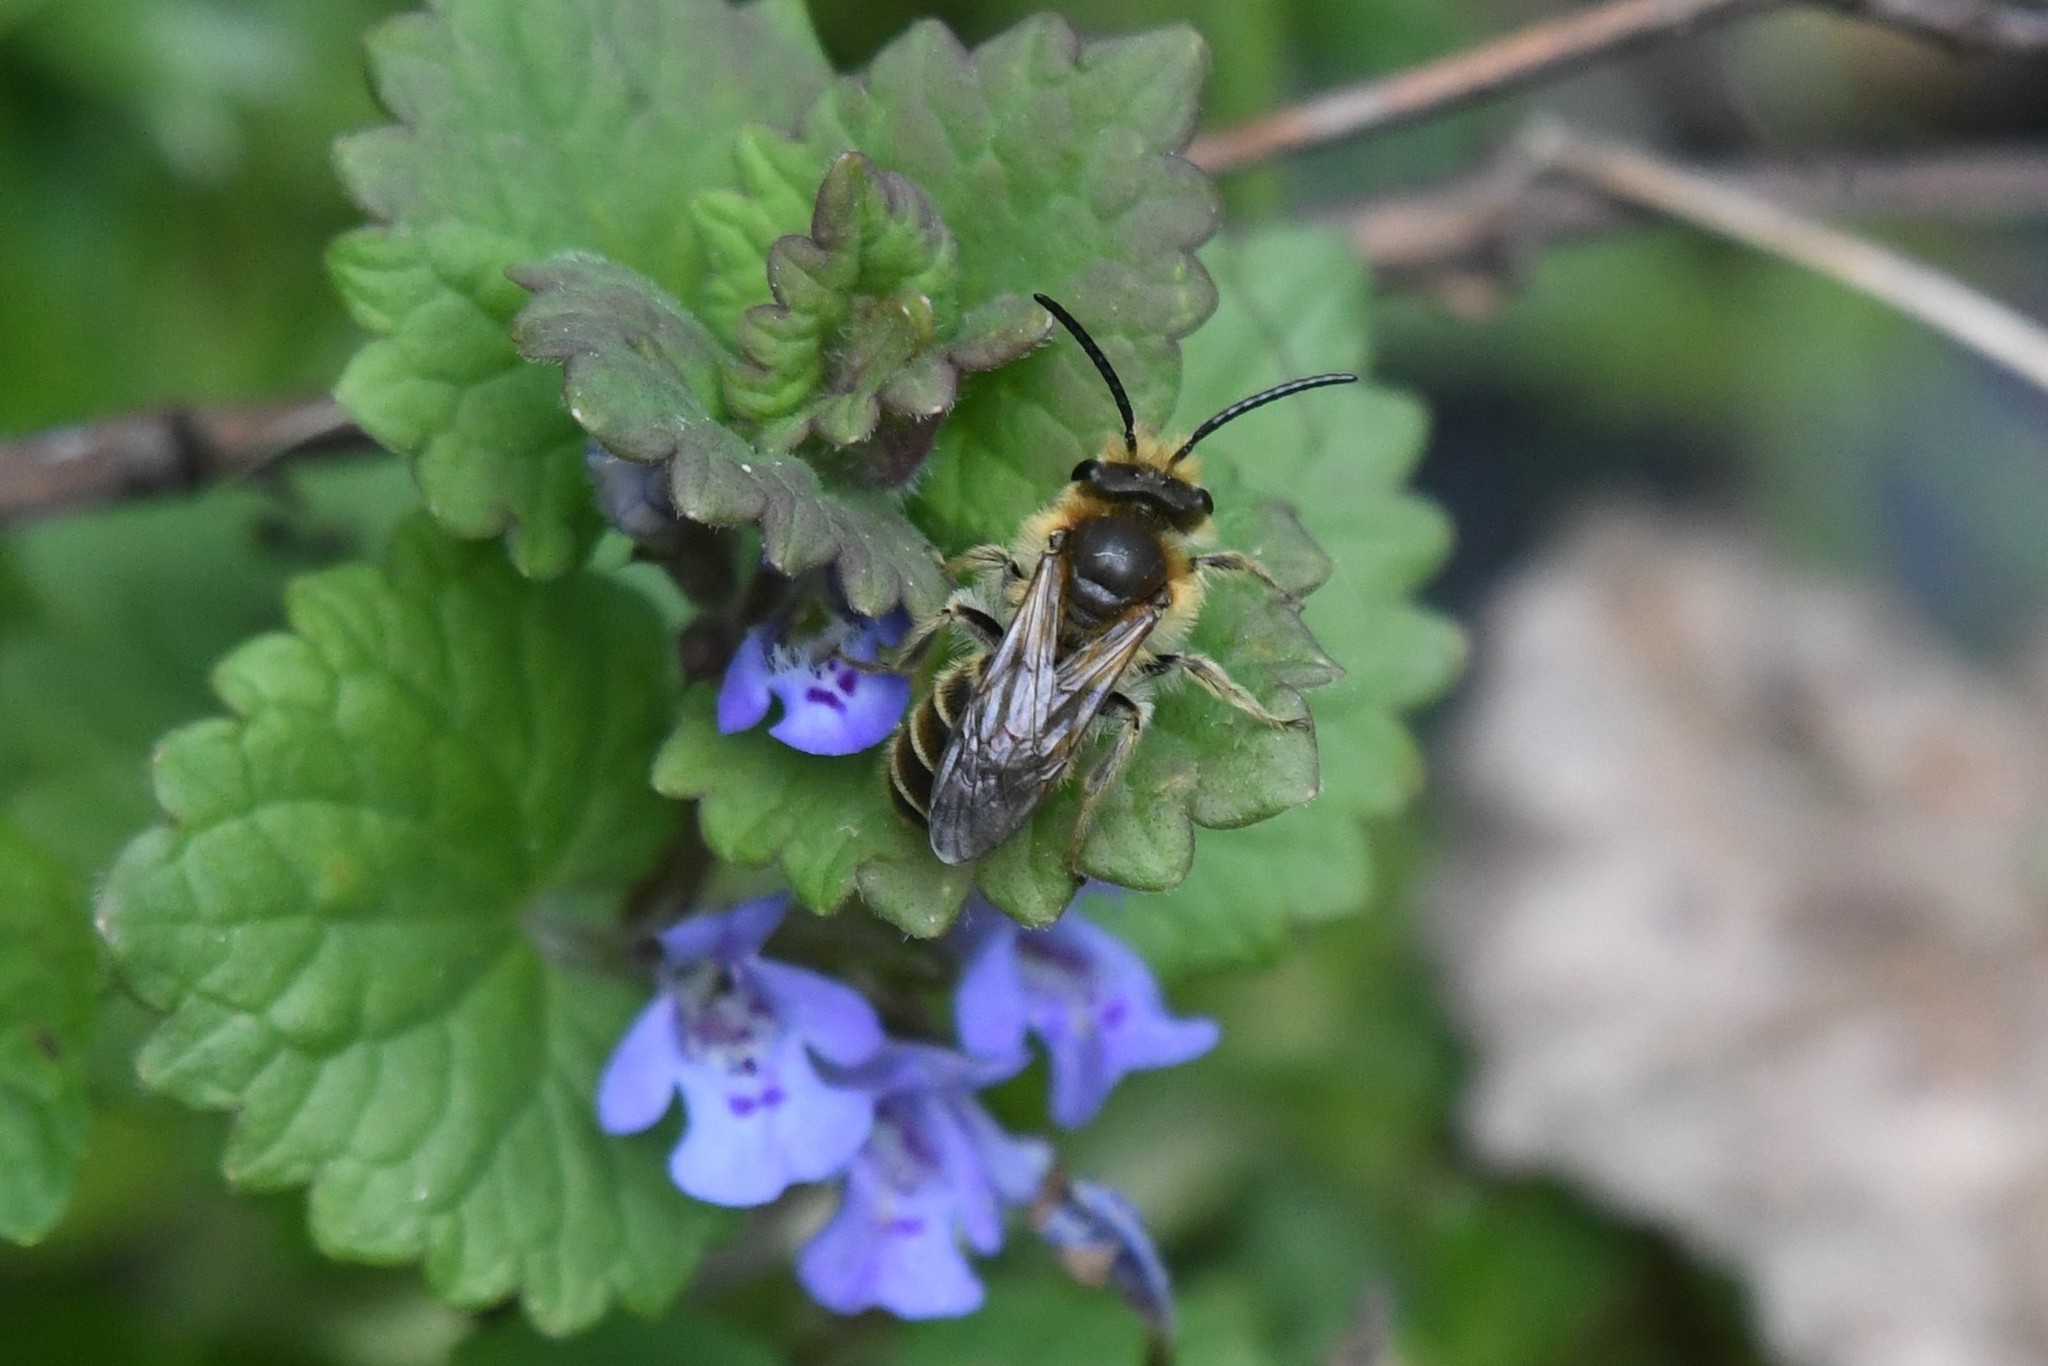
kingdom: Animalia
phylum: Arthropoda
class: Insecta
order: Hymenoptera
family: Andrenidae
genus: Andrena
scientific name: Andrena wilkella
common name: Wilke's mining bee
